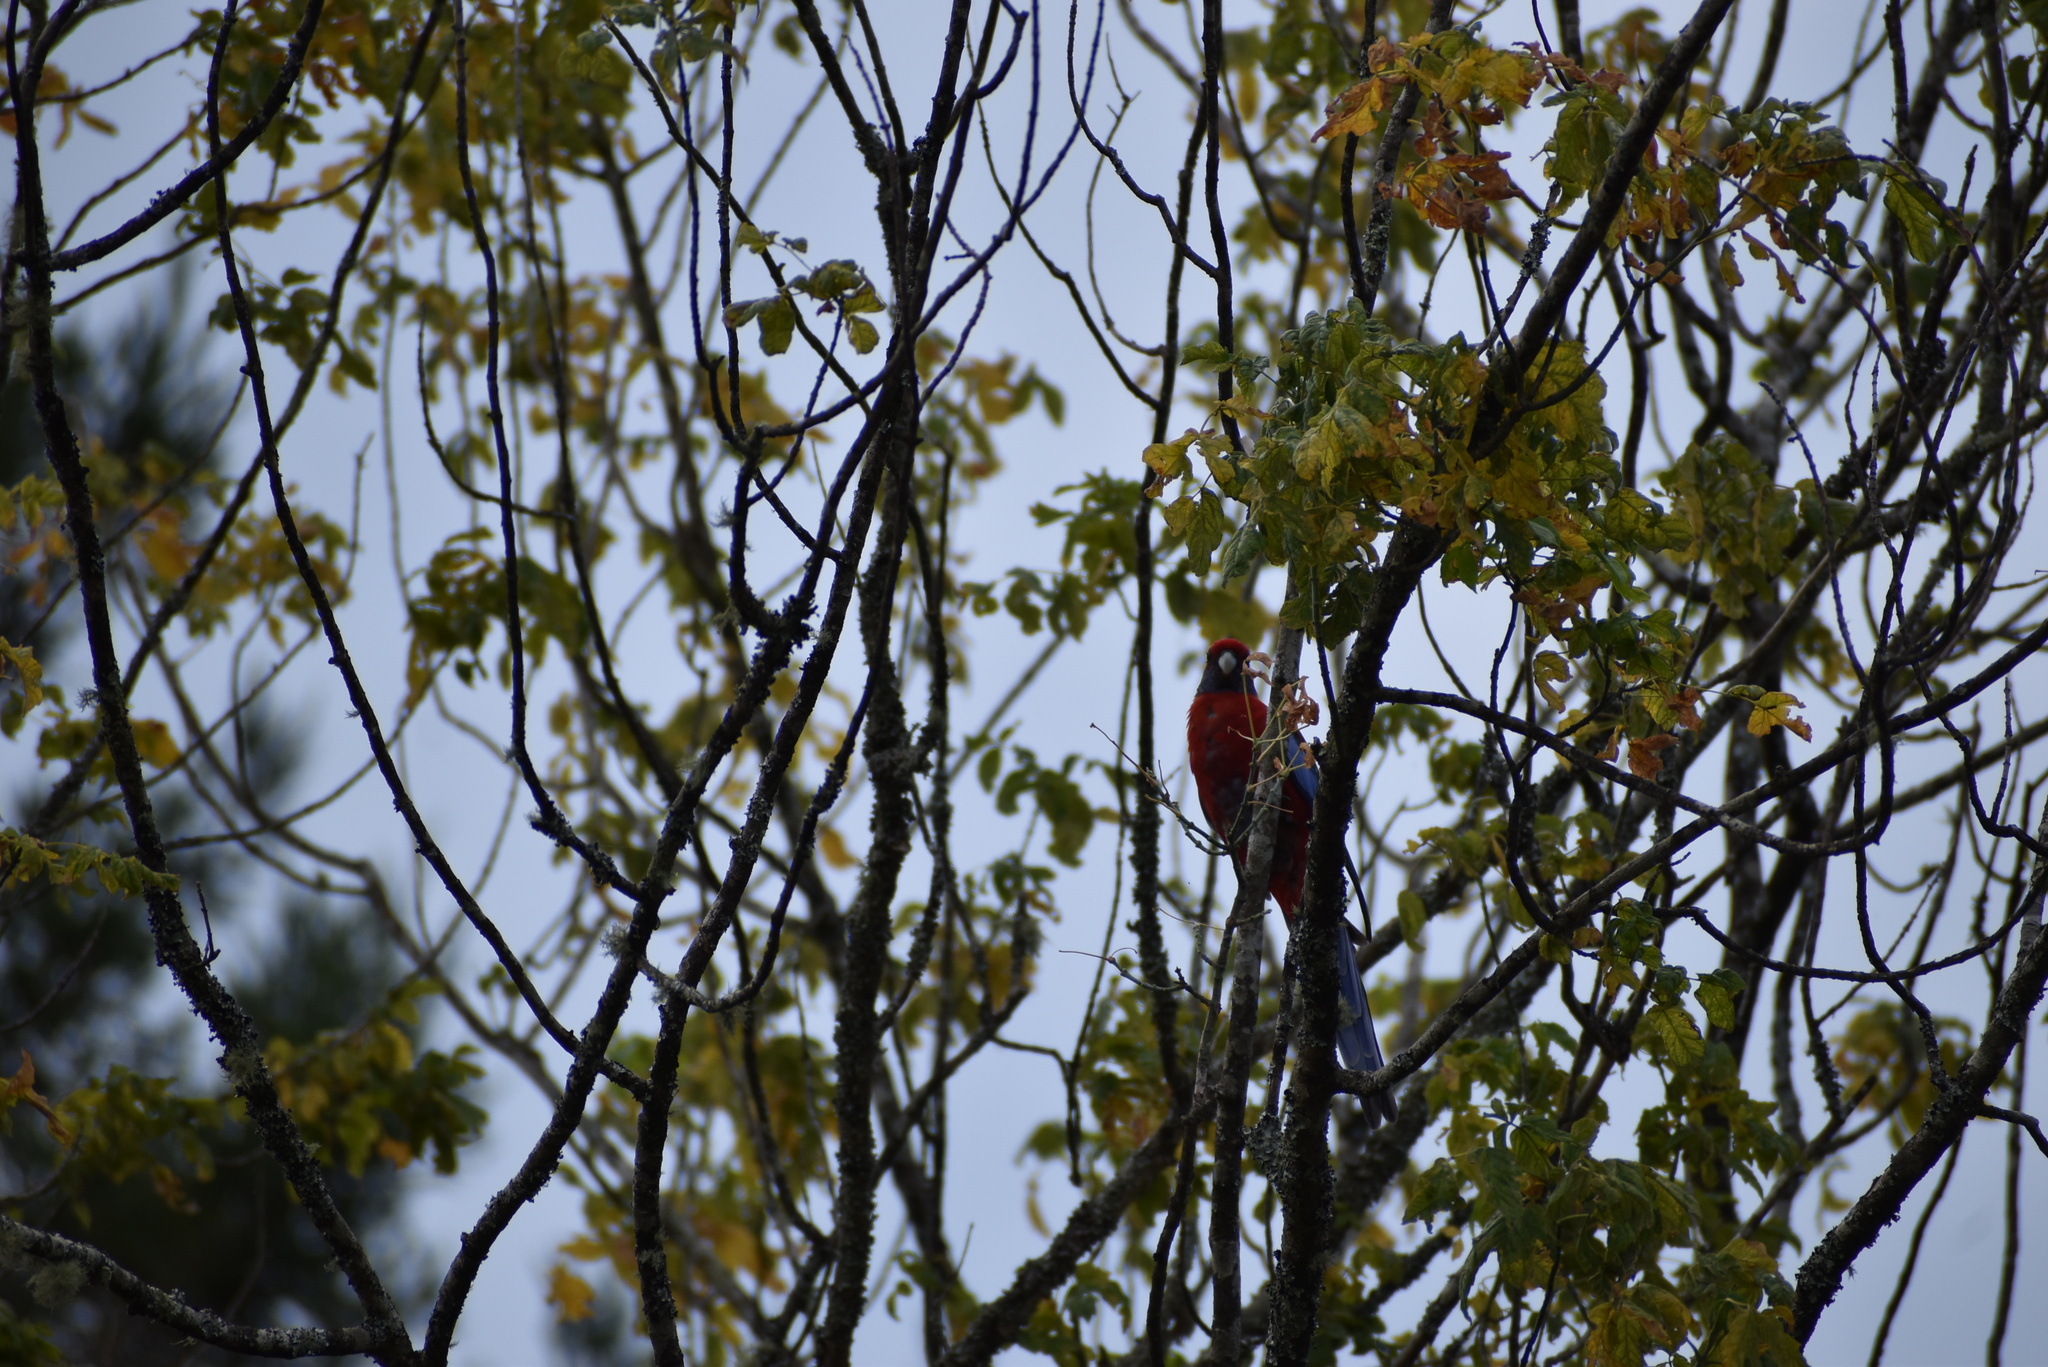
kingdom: Animalia
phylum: Chordata
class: Aves
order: Psittaciformes
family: Psittacidae
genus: Platycercus
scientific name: Platycercus elegans
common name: Crimson rosella
